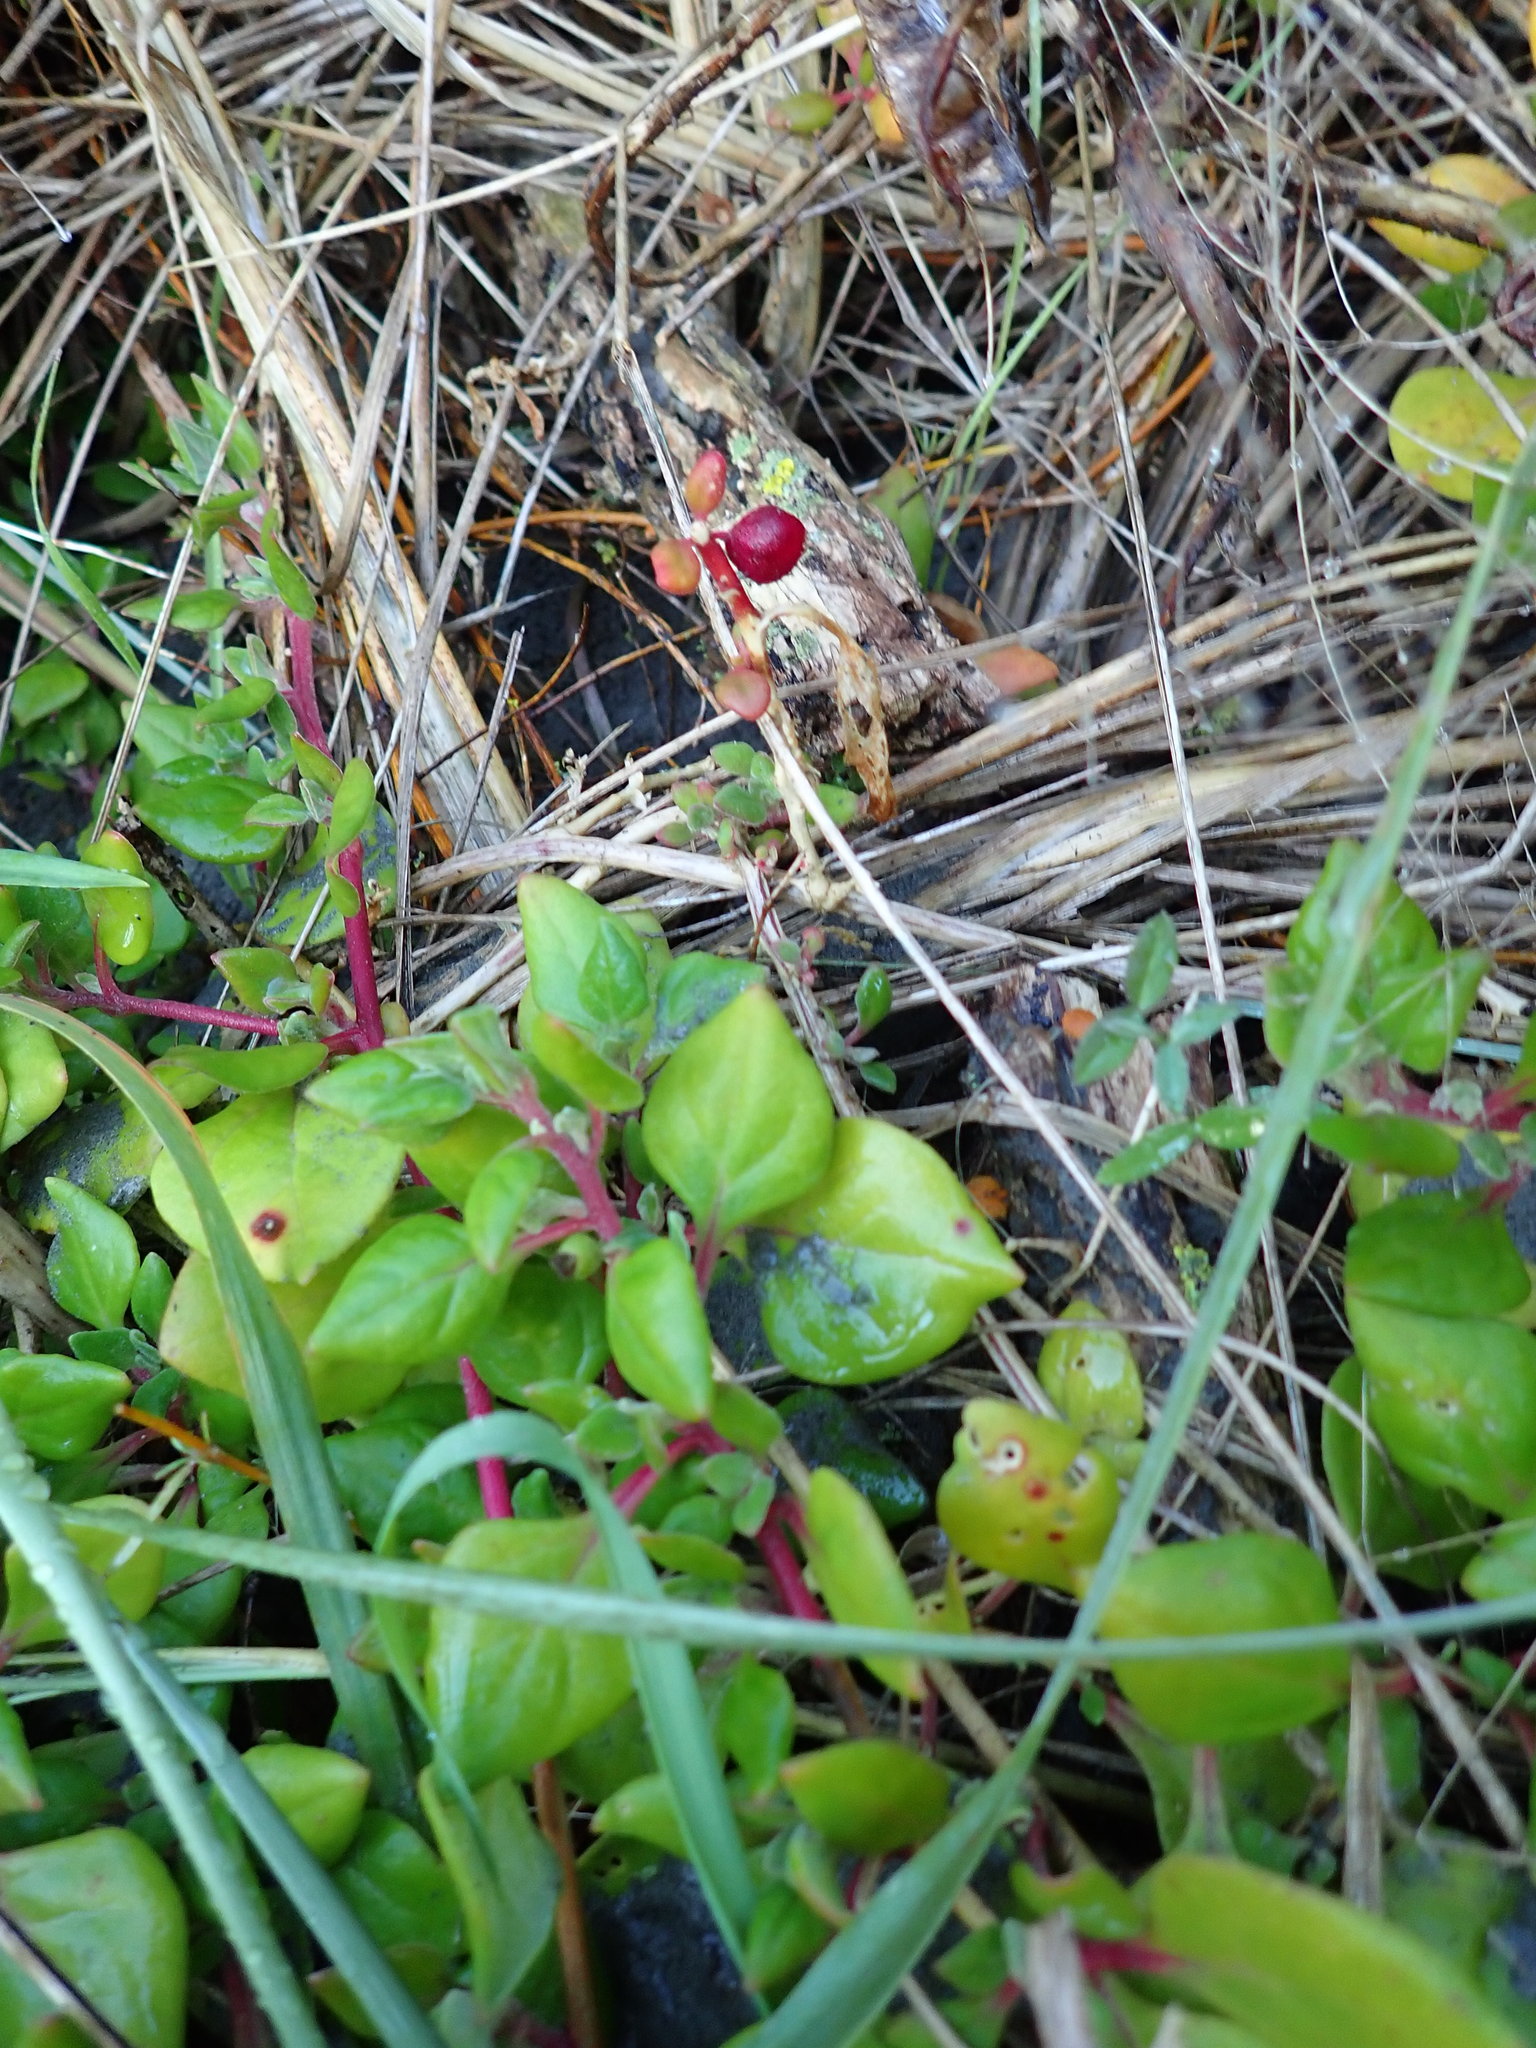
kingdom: Plantae
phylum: Tracheophyta
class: Magnoliopsida
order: Caryophyllales
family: Aizoaceae
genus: Tetragonia
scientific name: Tetragonia implexicoma
